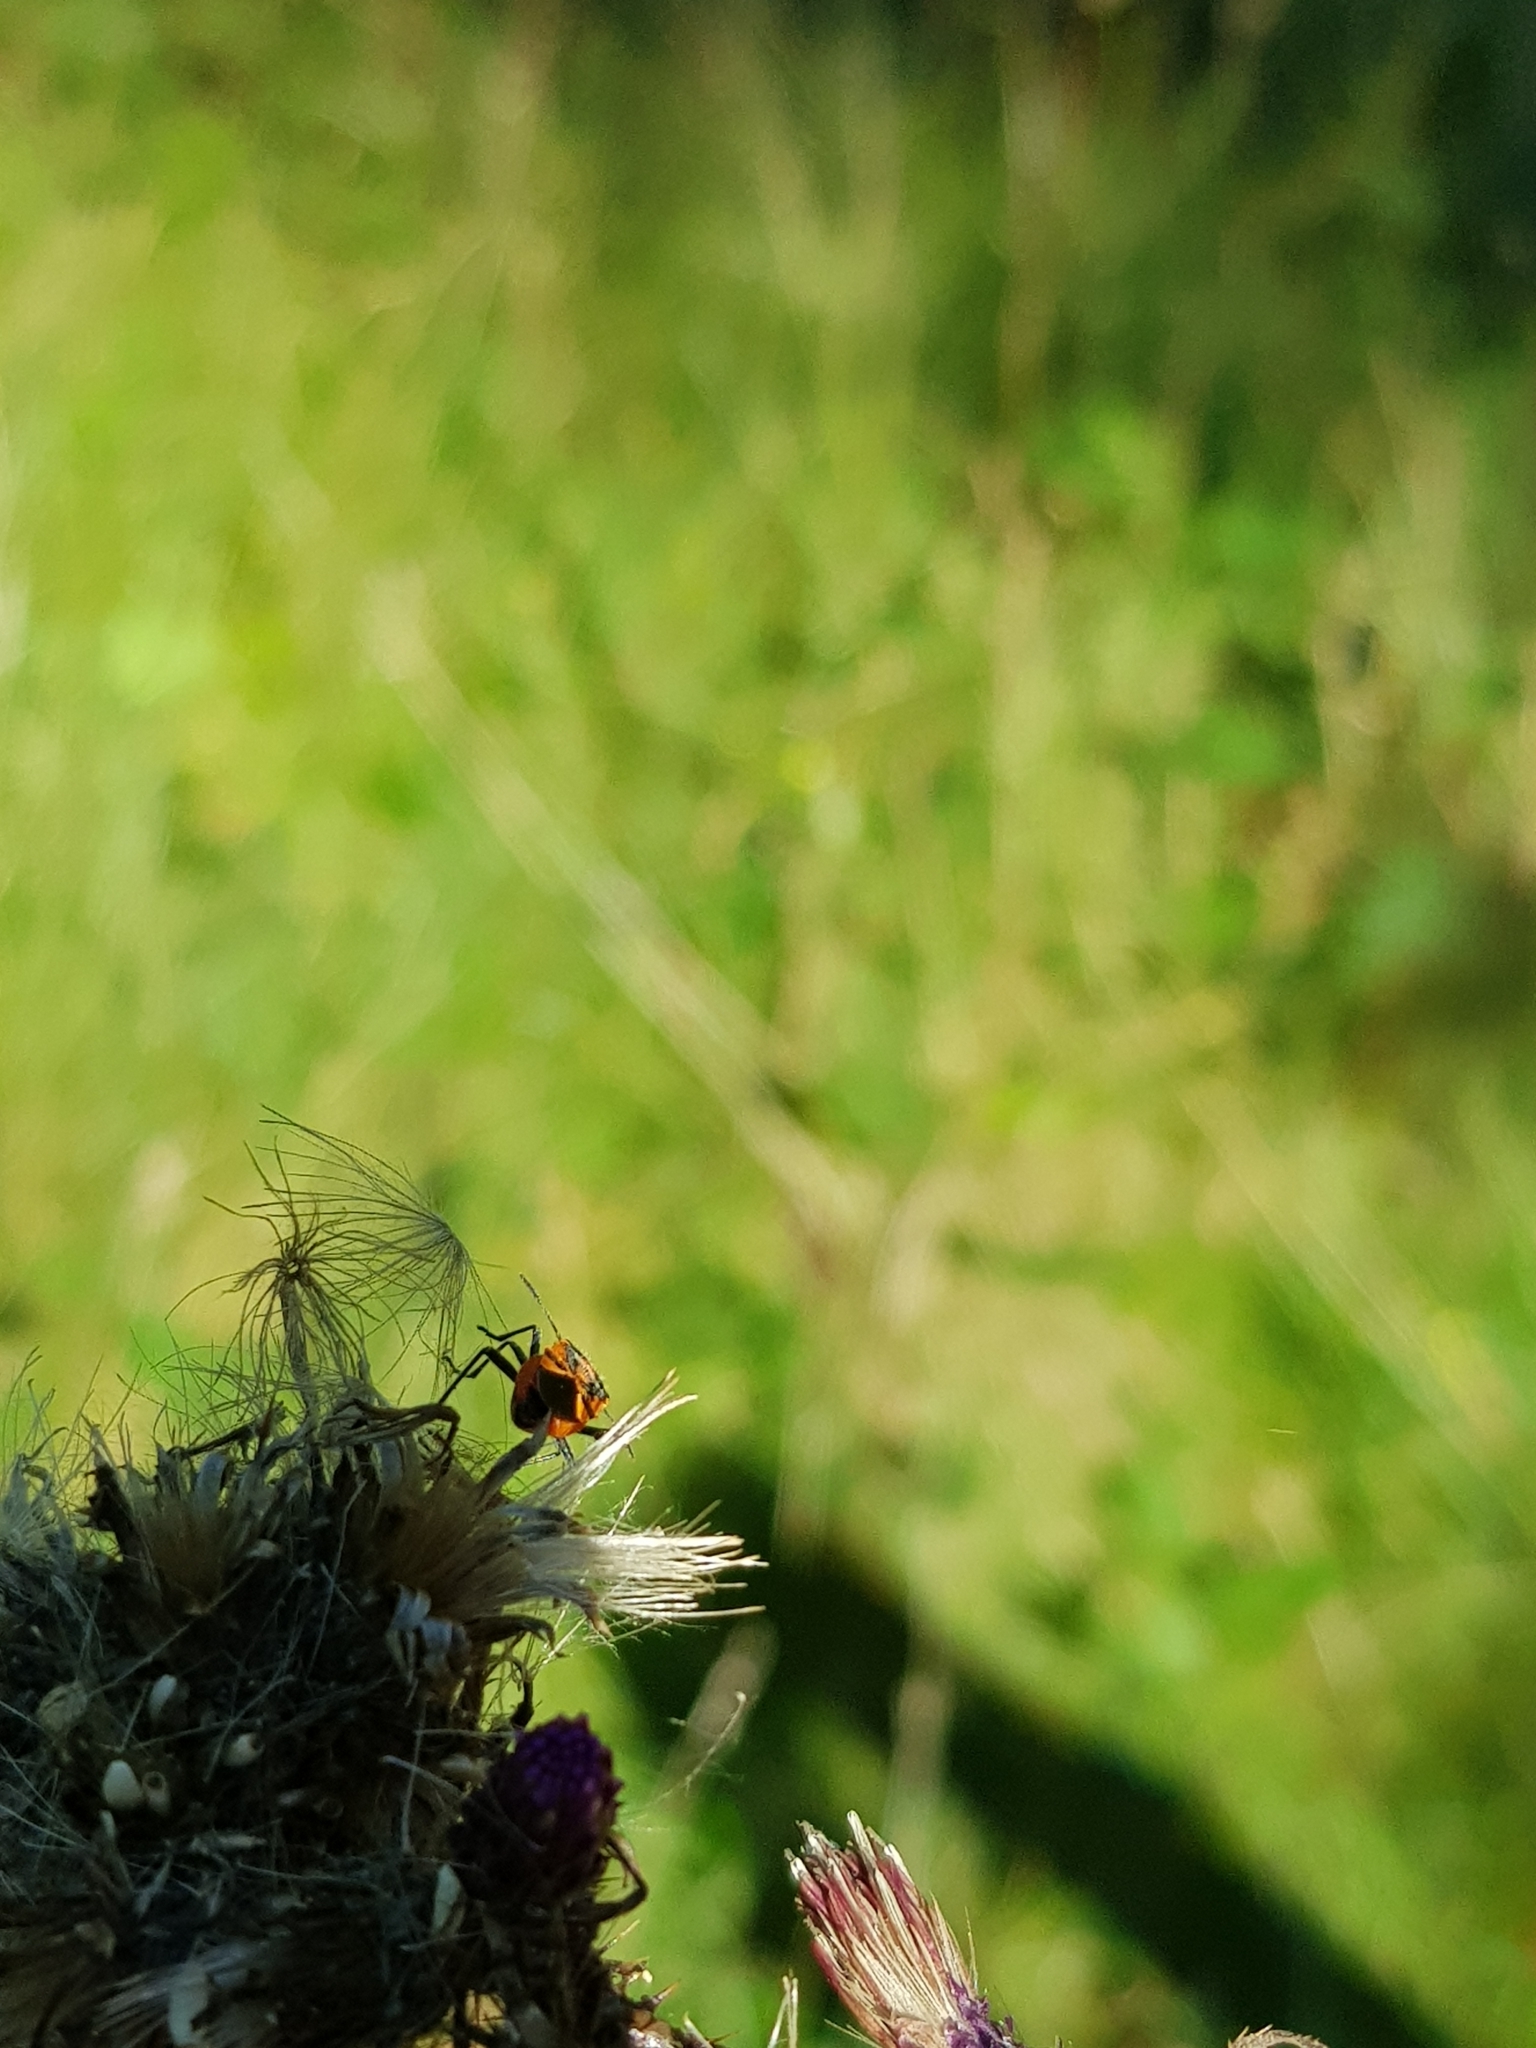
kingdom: Animalia
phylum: Arthropoda
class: Insecta
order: Hemiptera
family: Rhopalidae
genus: Corizus
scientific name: Corizus hyoscyami
